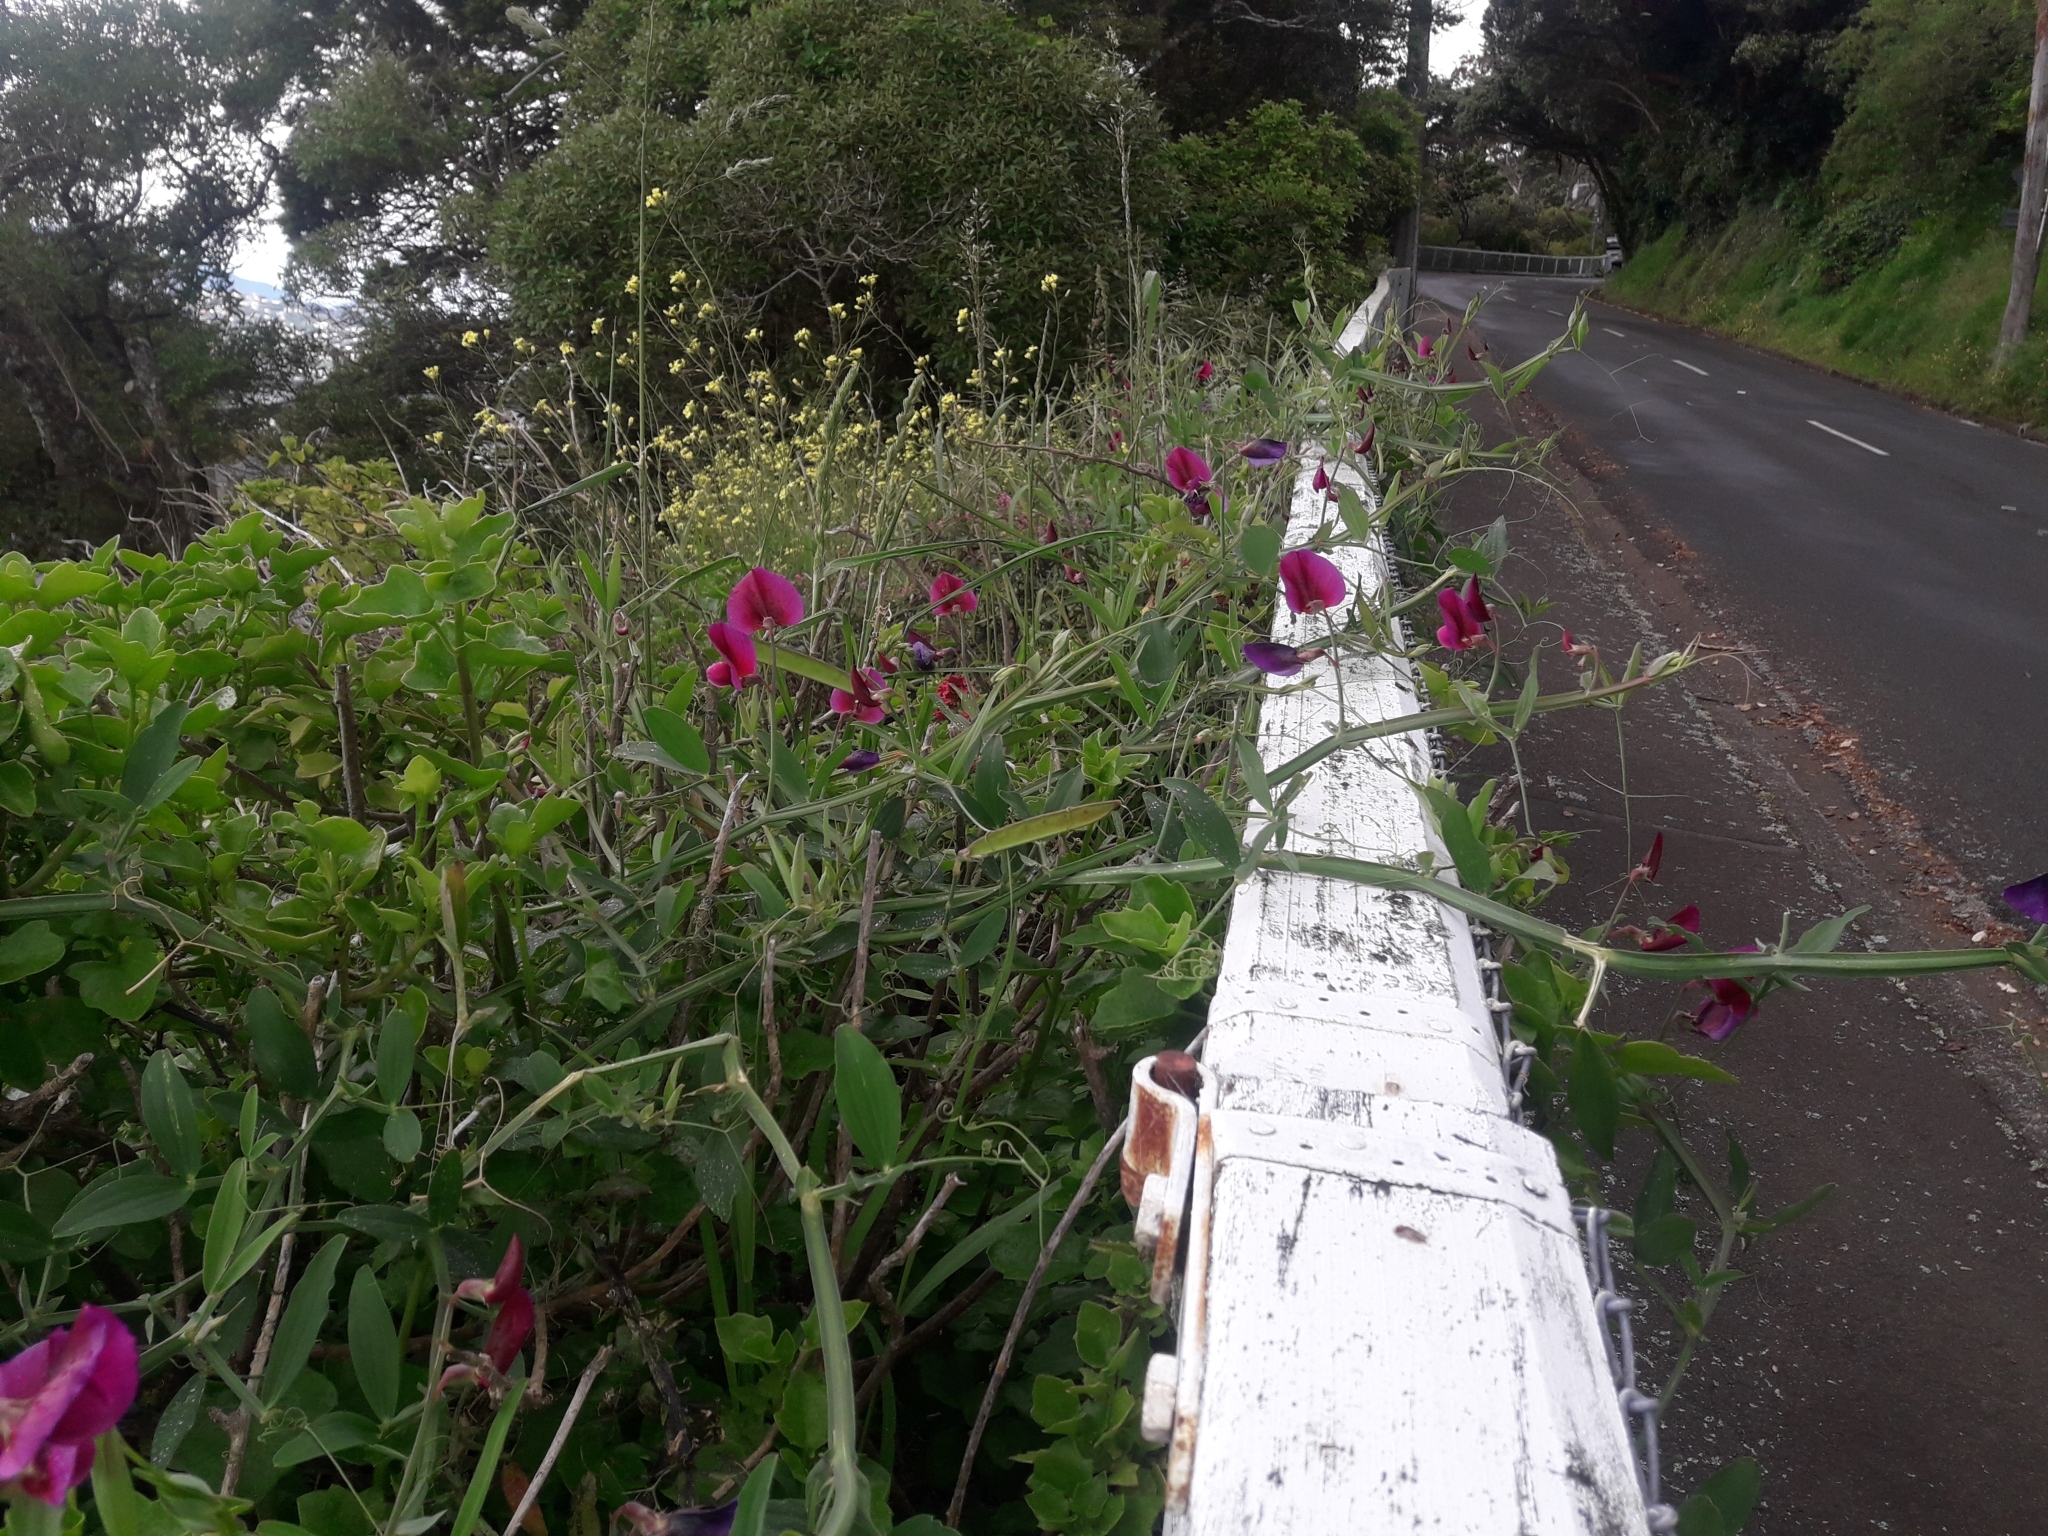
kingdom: Plantae
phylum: Tracheophyta
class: Magnoliopsida
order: Fabales
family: Fabaceae
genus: Lathyrus
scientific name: Lathyrus tingitanus
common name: Tangier pea
